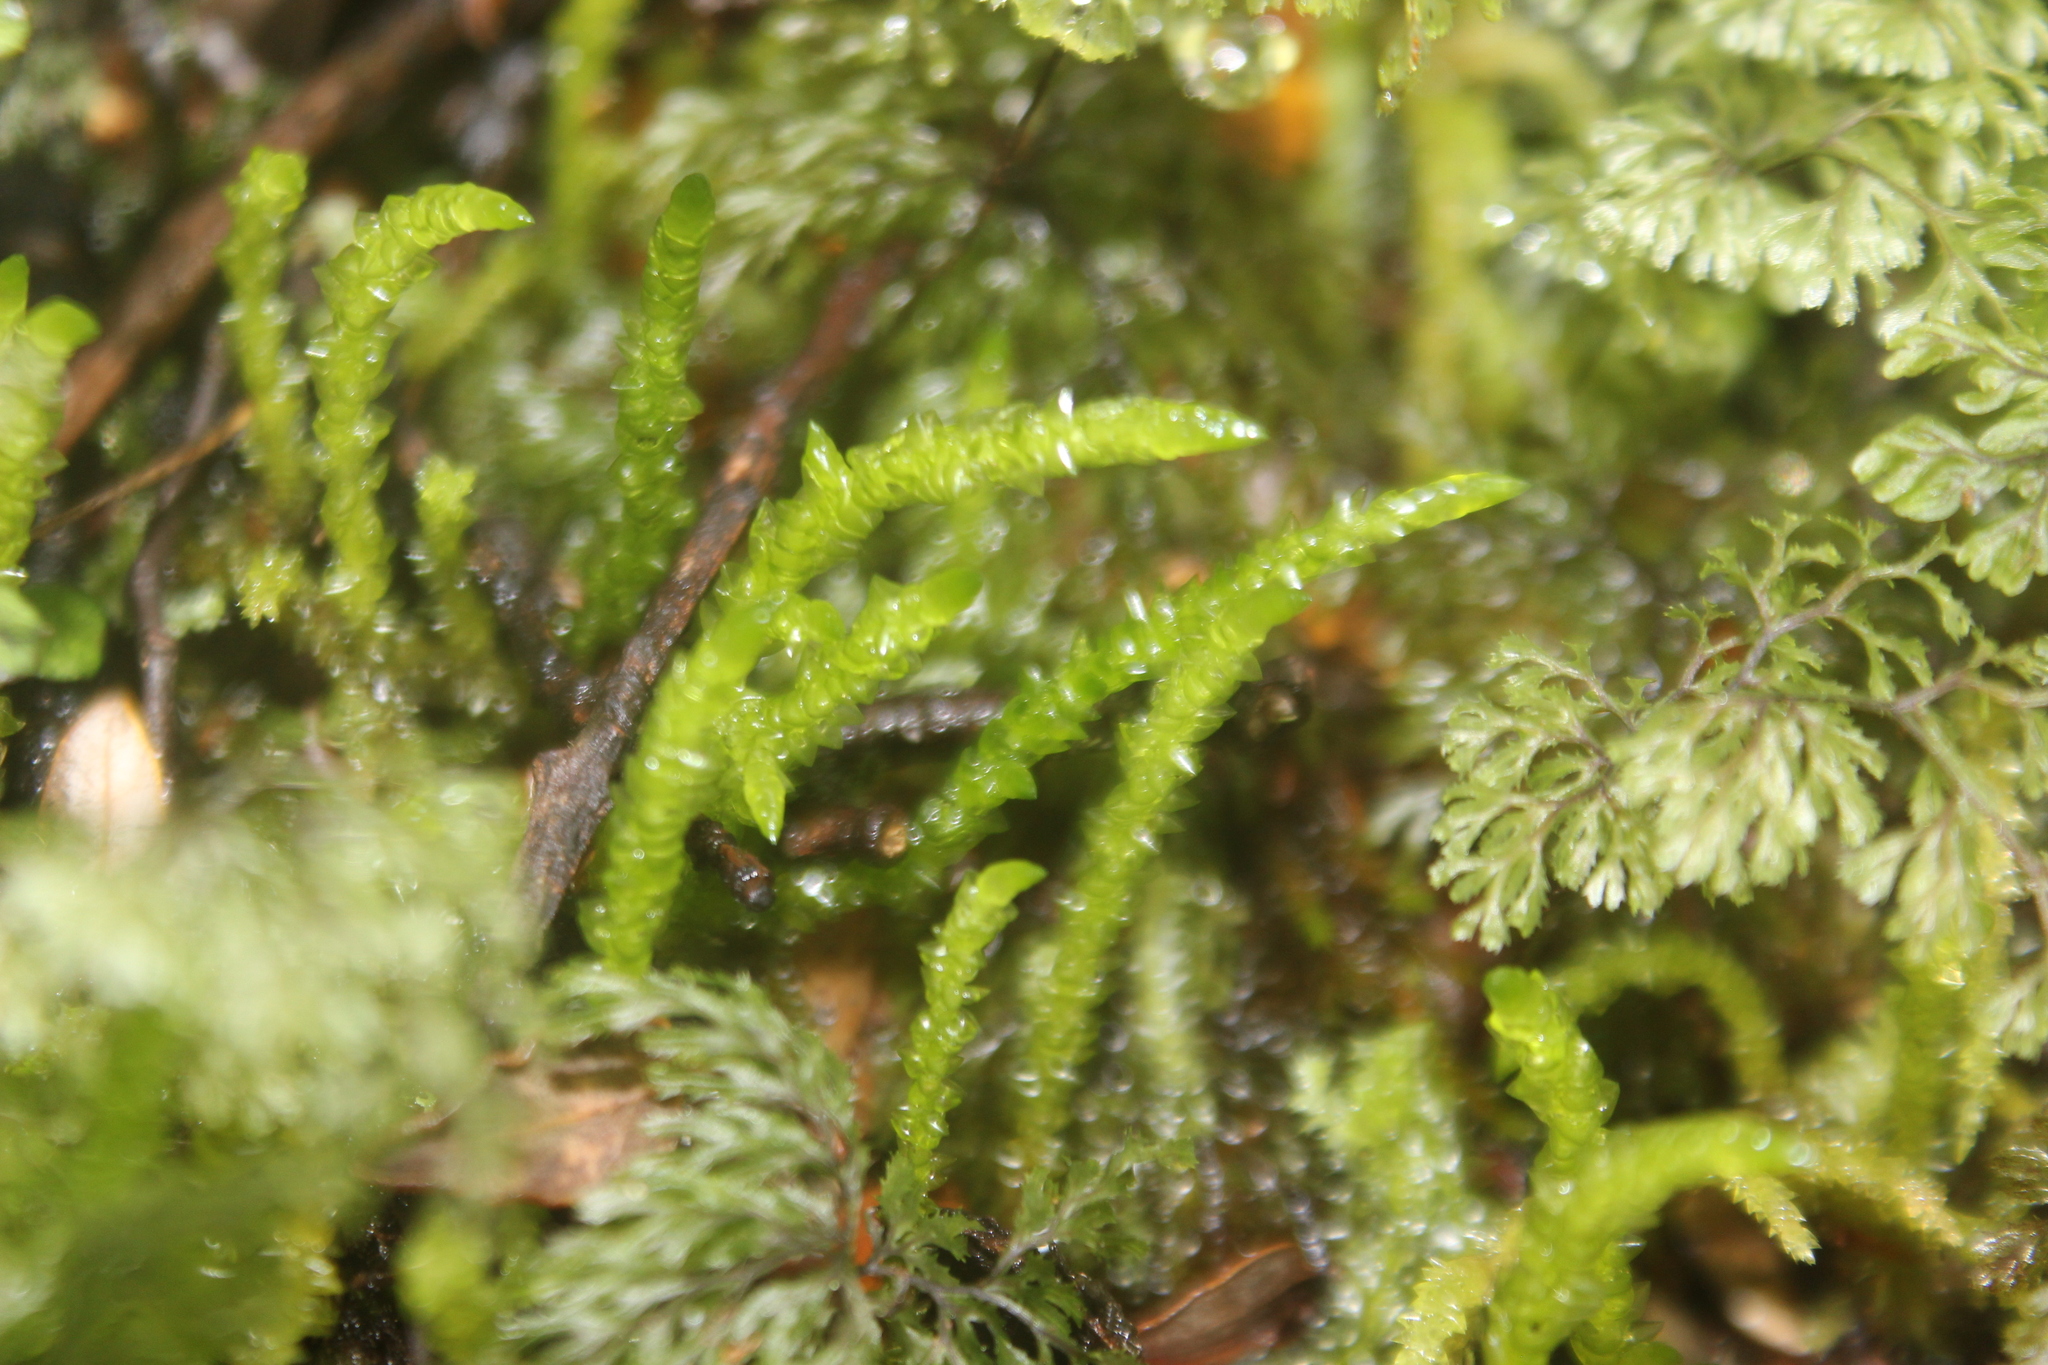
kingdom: Plantae
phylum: Bryophyta
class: Bryopsida
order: Hypnales
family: Acrocladiaceae
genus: Acrocladium
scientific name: Acrocladium chlamydophyllum
